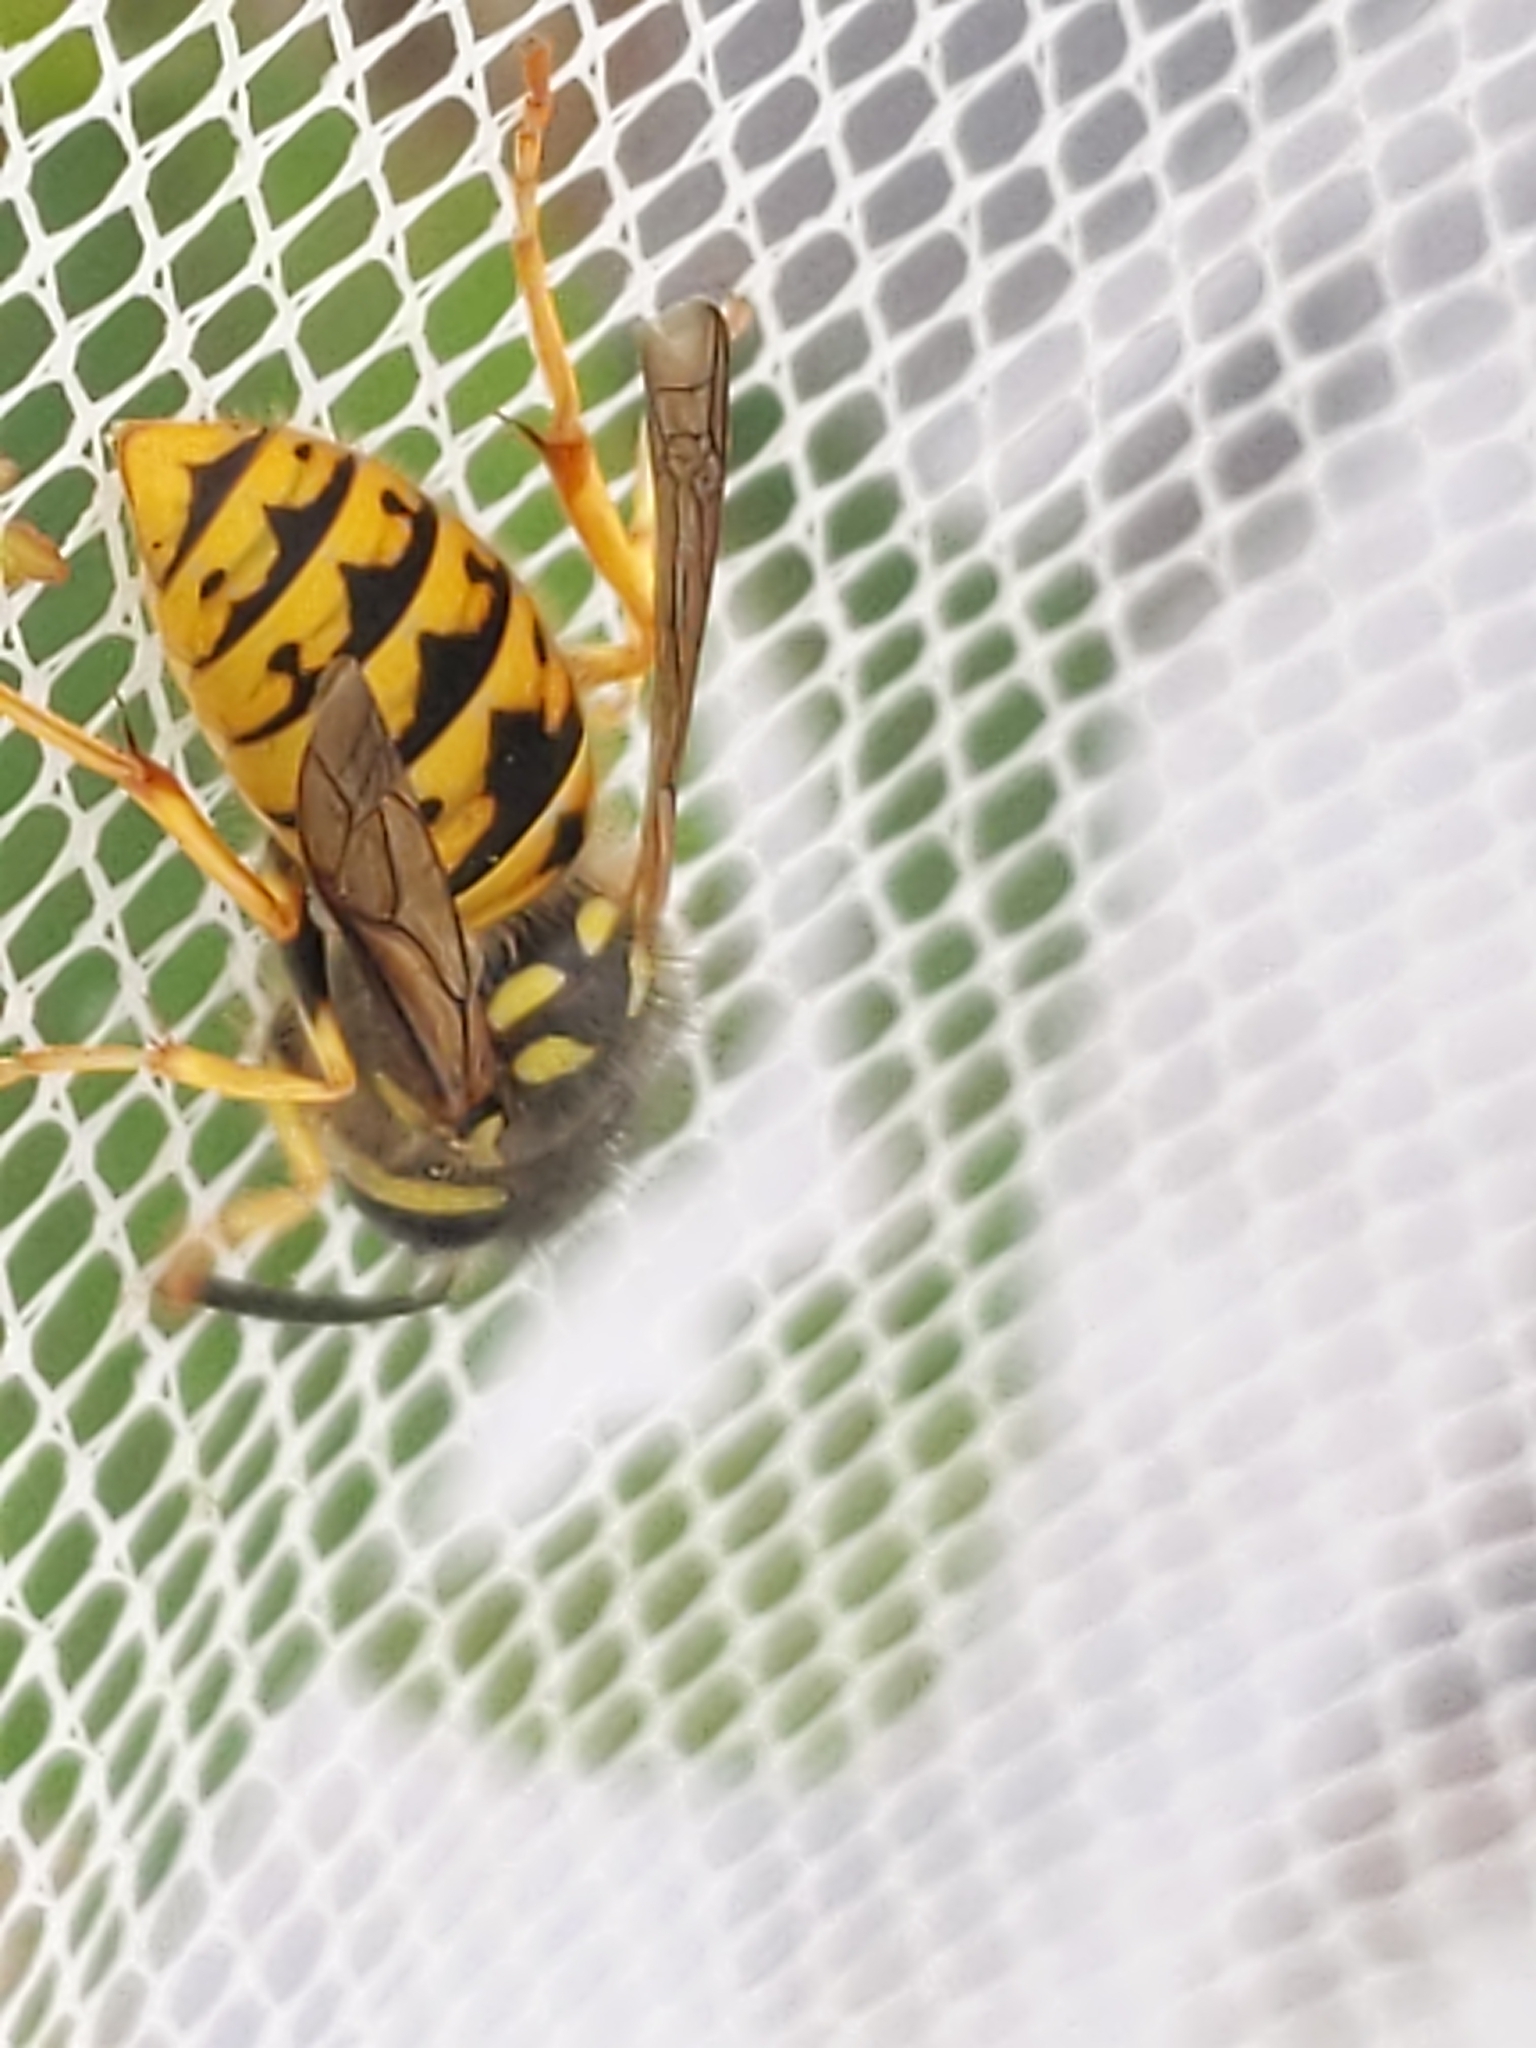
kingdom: Animalia
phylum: Arthropoda
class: Insecta
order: Hymenoptera
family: Vespidae
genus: Vespula
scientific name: Vespula germanica
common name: German wasp
